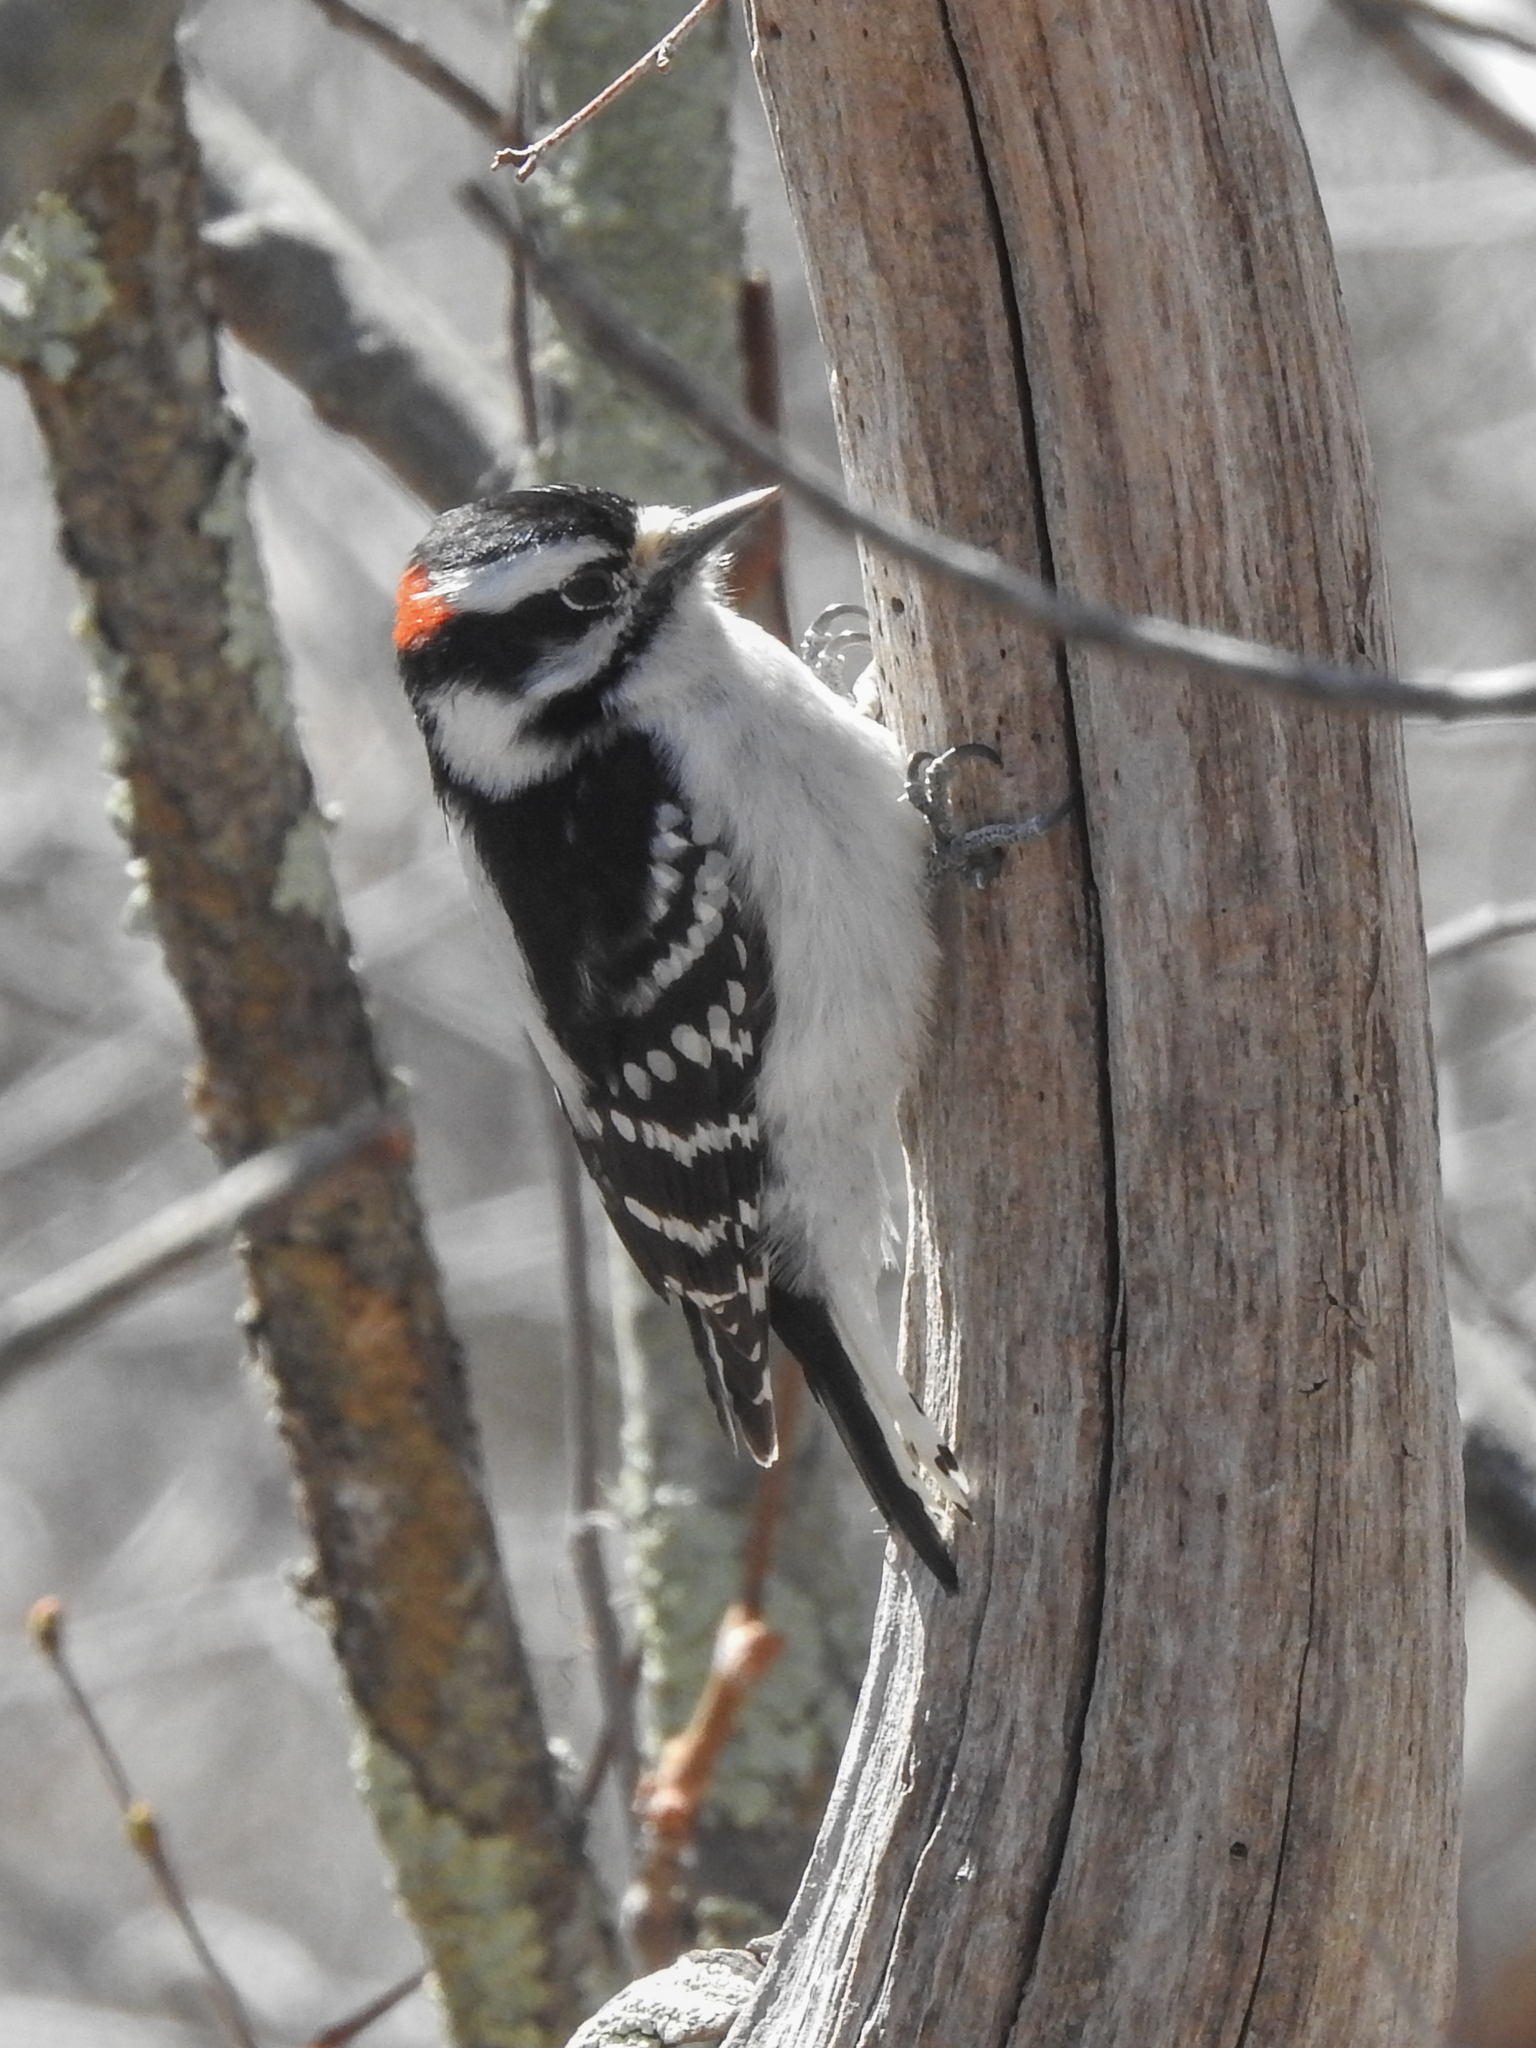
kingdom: Animalia
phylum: Chordata
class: Aves
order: Piciformes
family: Picidae
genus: Dryobates
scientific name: Dryobates pubescens
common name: Downy woodpecker
